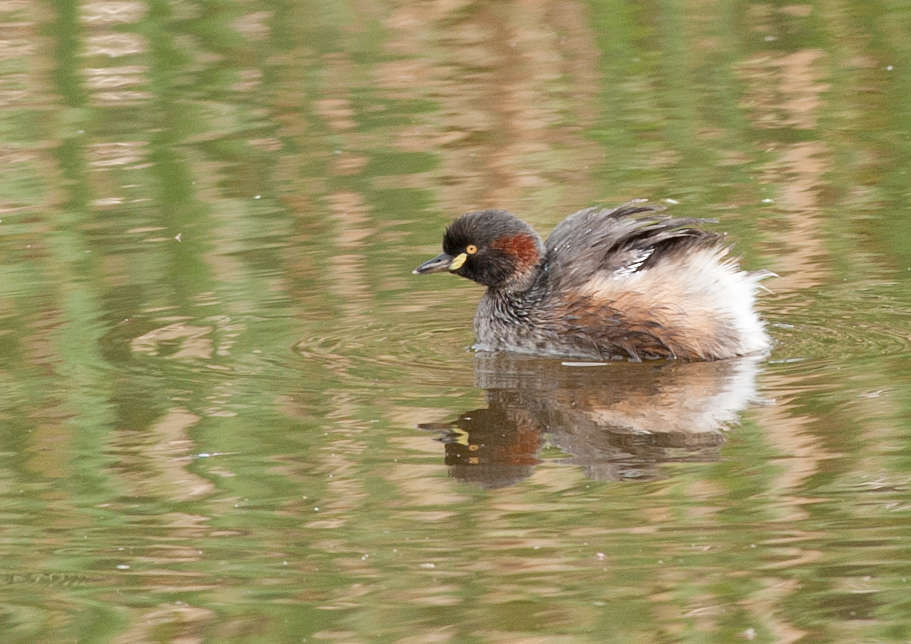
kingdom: Animalia
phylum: Chordata
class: Aves
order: Podicipediformes
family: Podicipedidae
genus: Tachybaptus
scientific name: Tachybaptus novaehollandiae
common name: Australasian grebe
